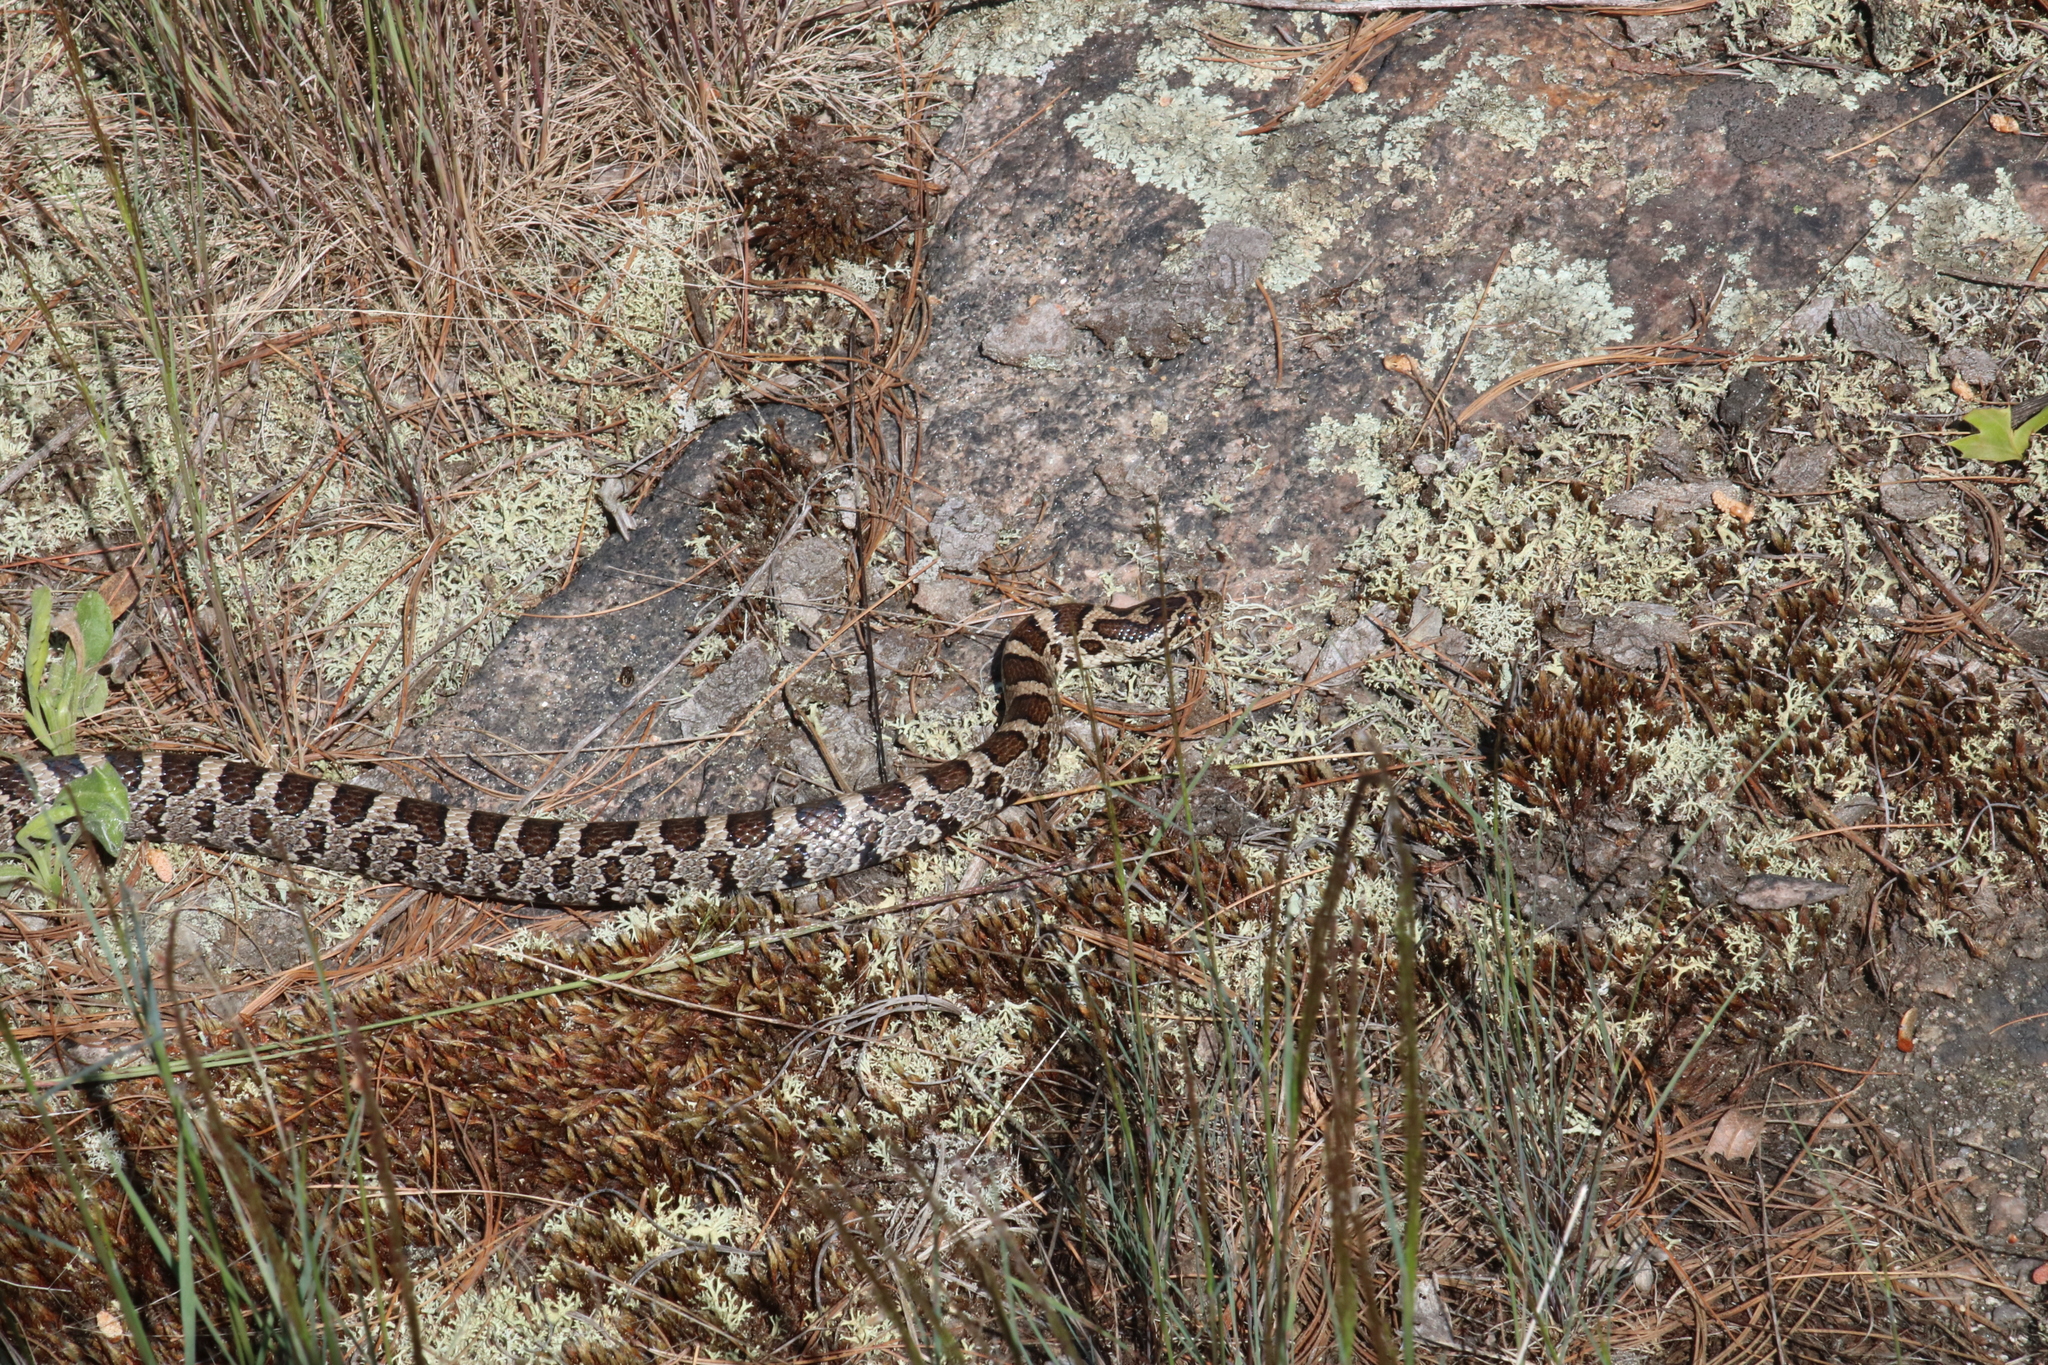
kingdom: Animalia
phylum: Chordata
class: Squamata
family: Colubridae
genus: Lampropeltis
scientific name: Lampropeltis triangulum
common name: Eastern milksnake
